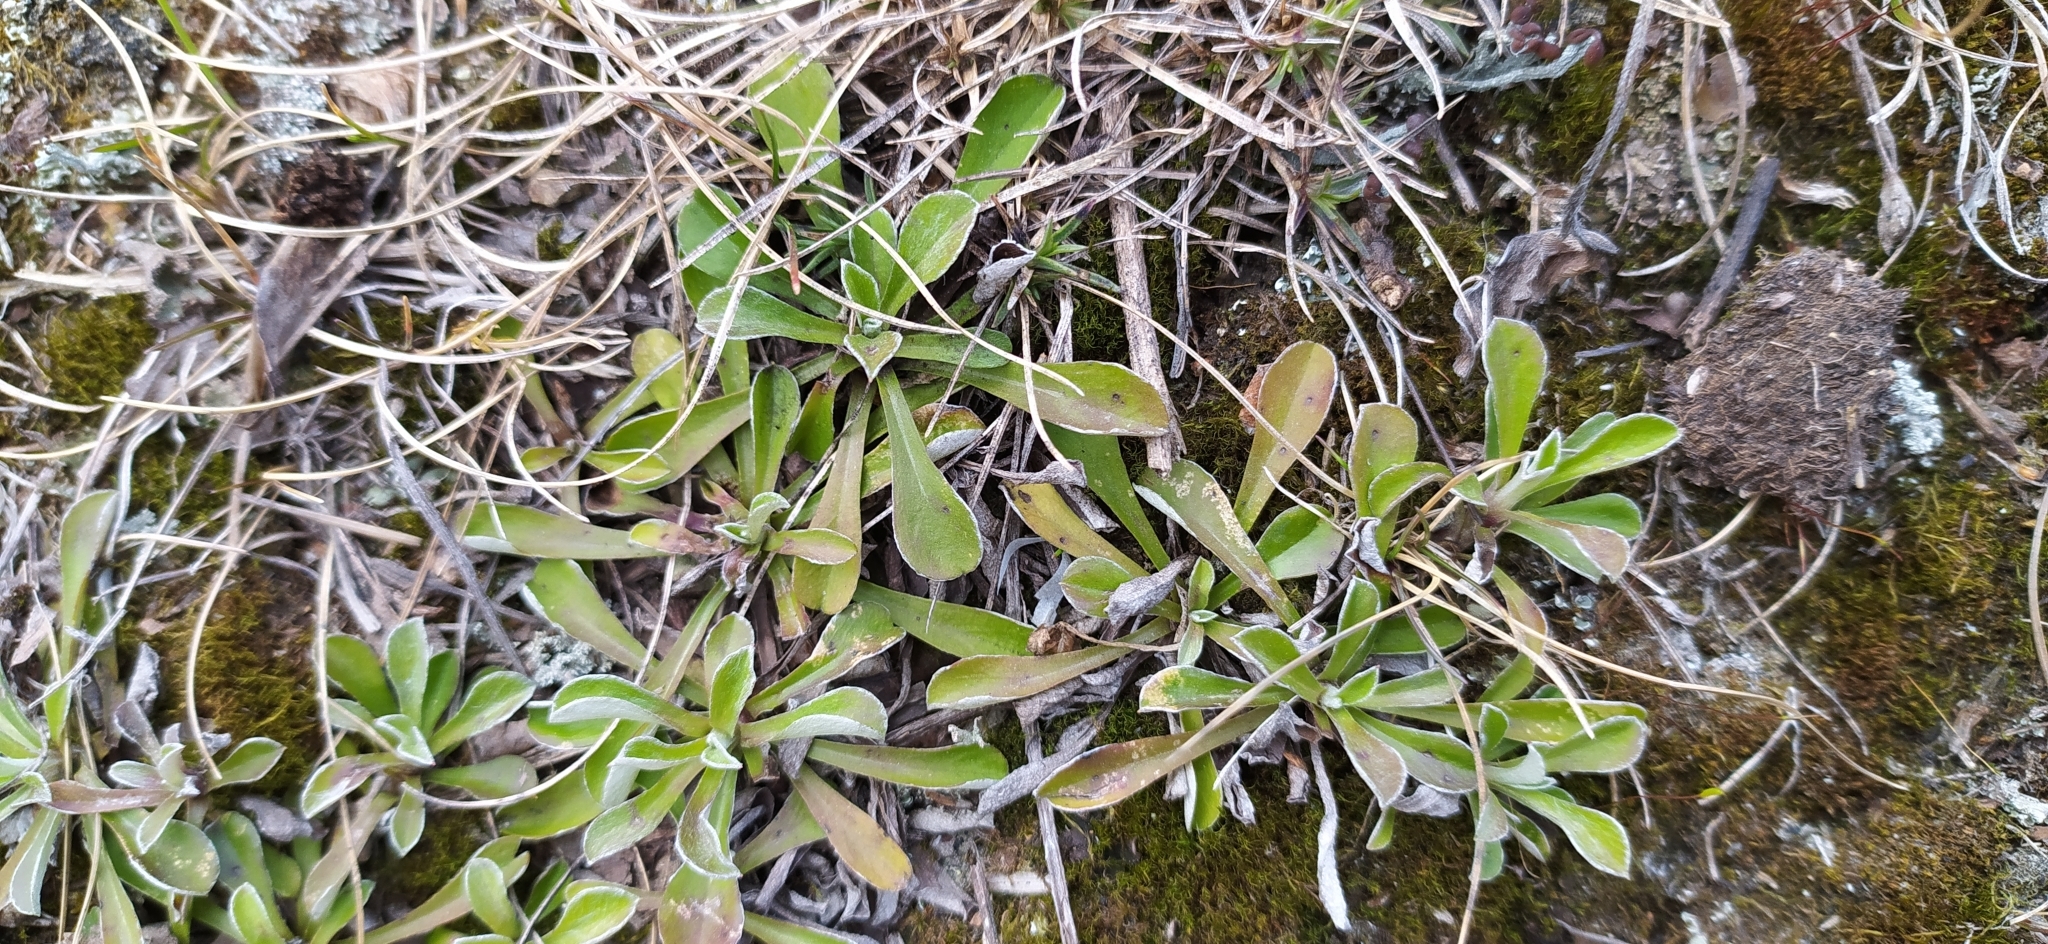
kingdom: Plantae
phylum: Tracheophyta
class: Magnoliopsida
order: Asterales
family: Asteraceae
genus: Antennaria
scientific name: Antennaria dioica
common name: Mountain everlasting
